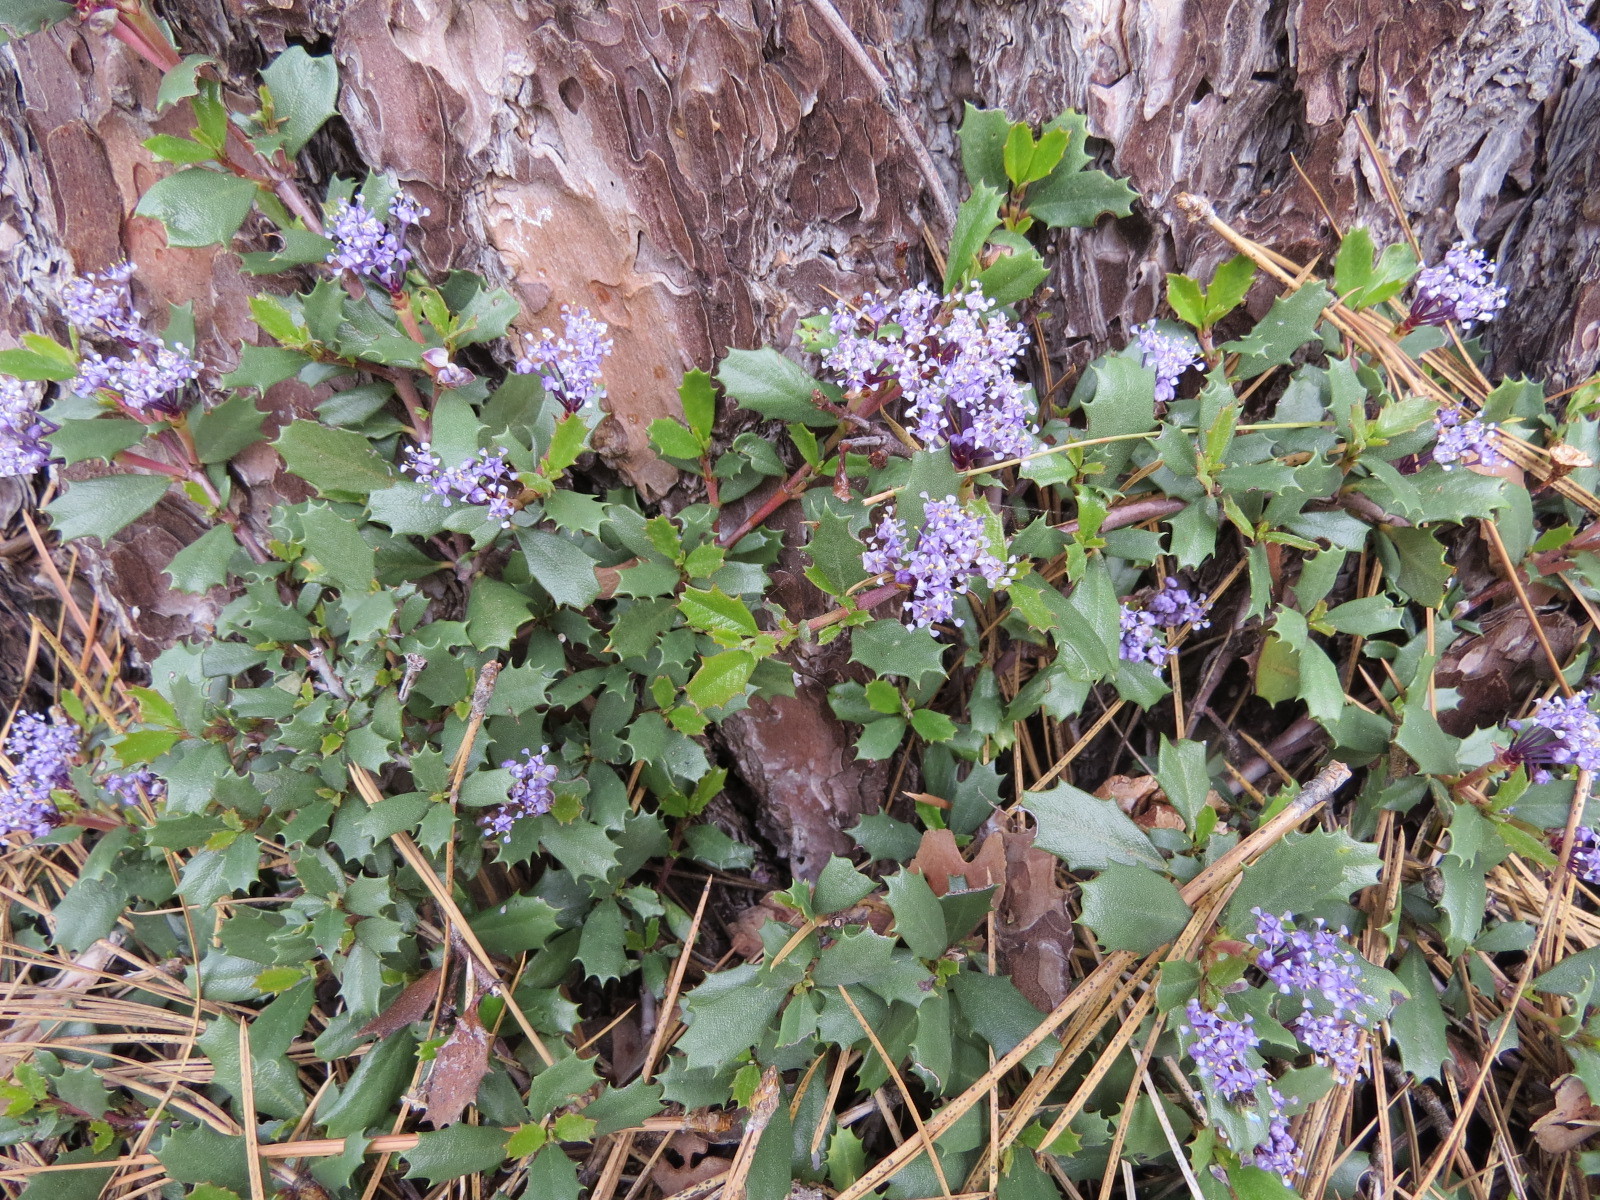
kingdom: Plantae
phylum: Tracheophyta
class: Magnoliopsida
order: Rosales
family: Rhamnaceae
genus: Ceanothus
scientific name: Ceanothus prostratus
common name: Mahala-mat
